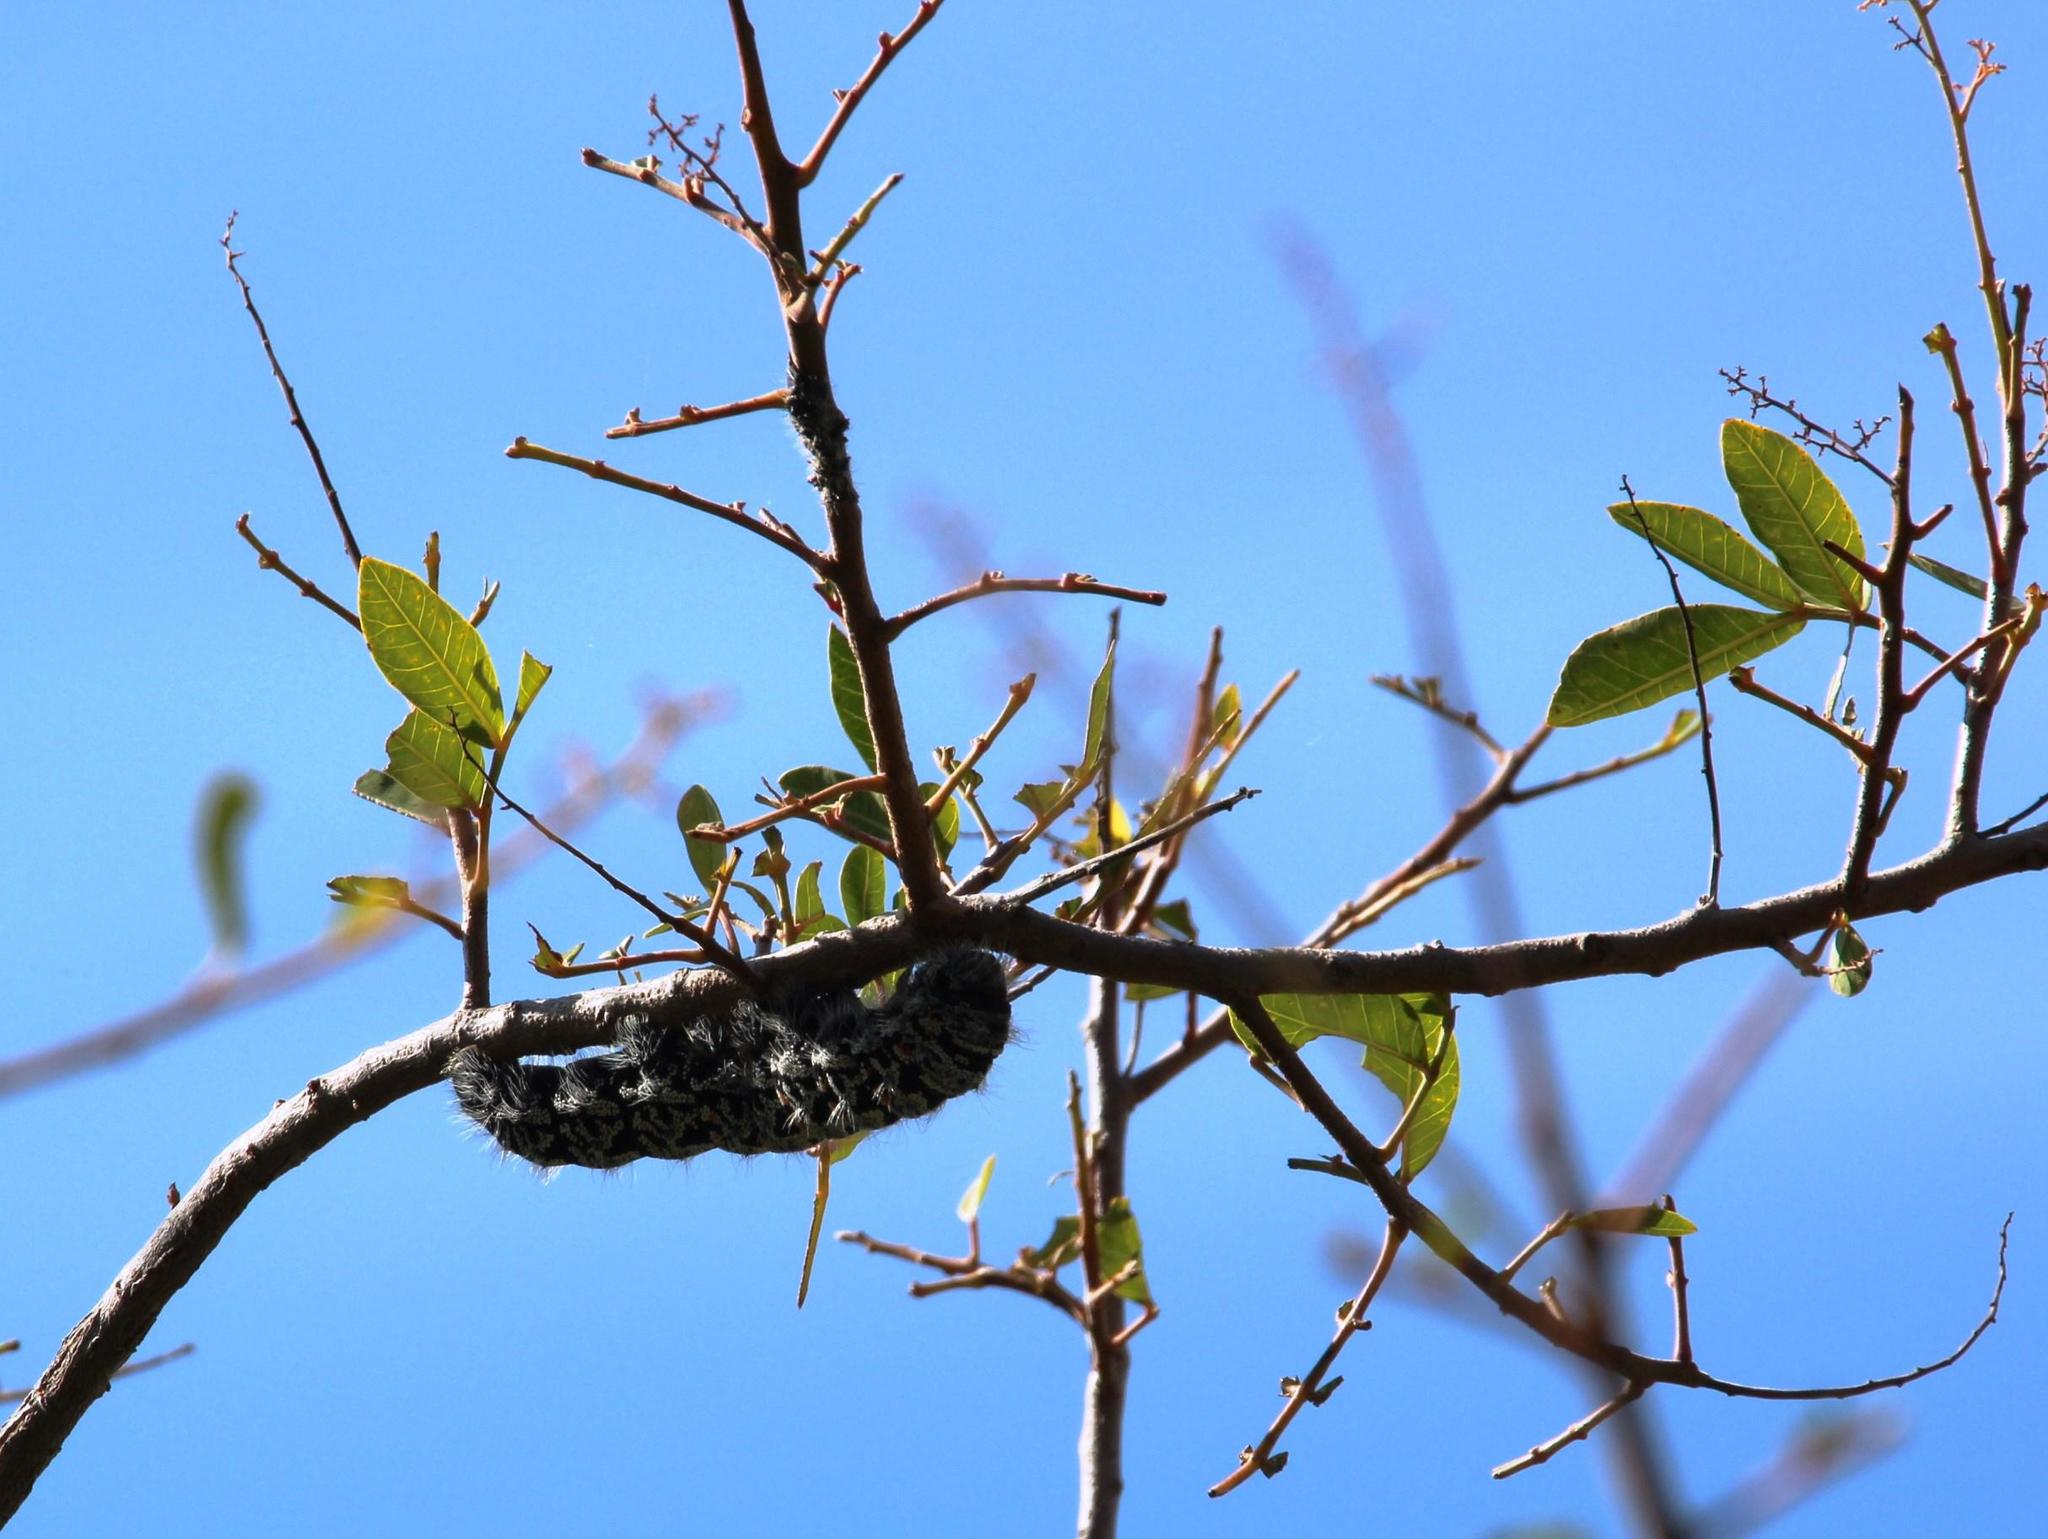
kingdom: Animalia
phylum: Arthropoda
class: Insecta
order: Lepidoptera
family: Saturniidae
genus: Gonimbrasia
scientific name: Gonimbrasia tyrrhea
